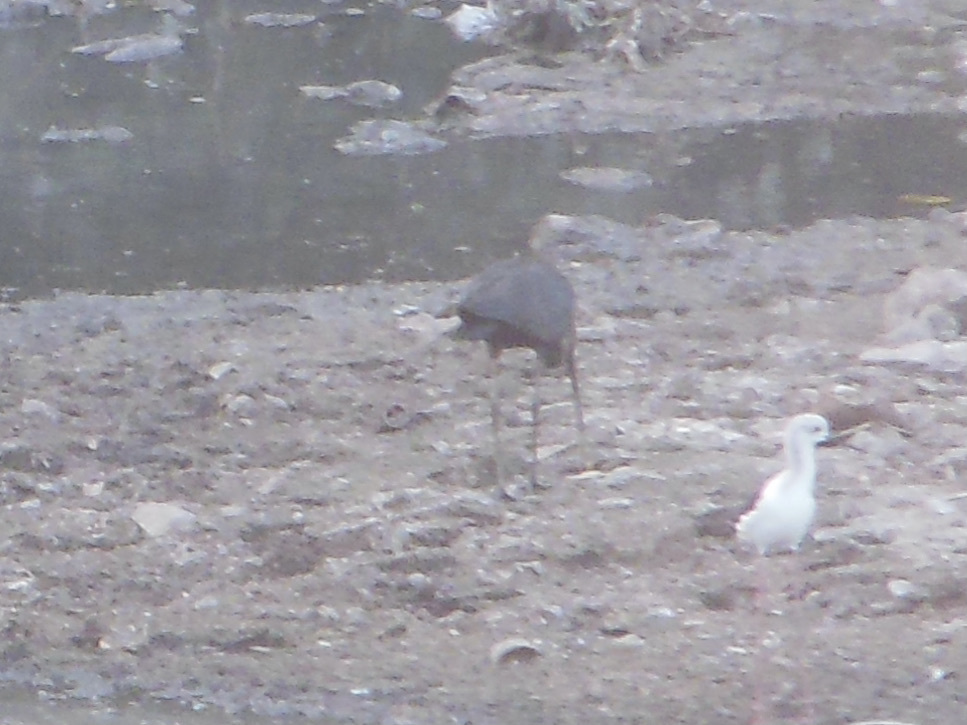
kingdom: Animalia
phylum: Chordata
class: Aves
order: Pelecaniformes
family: Threskiornithidae
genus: Pseudibis
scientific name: Pseudibis papillosa
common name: Red-naped ibis
